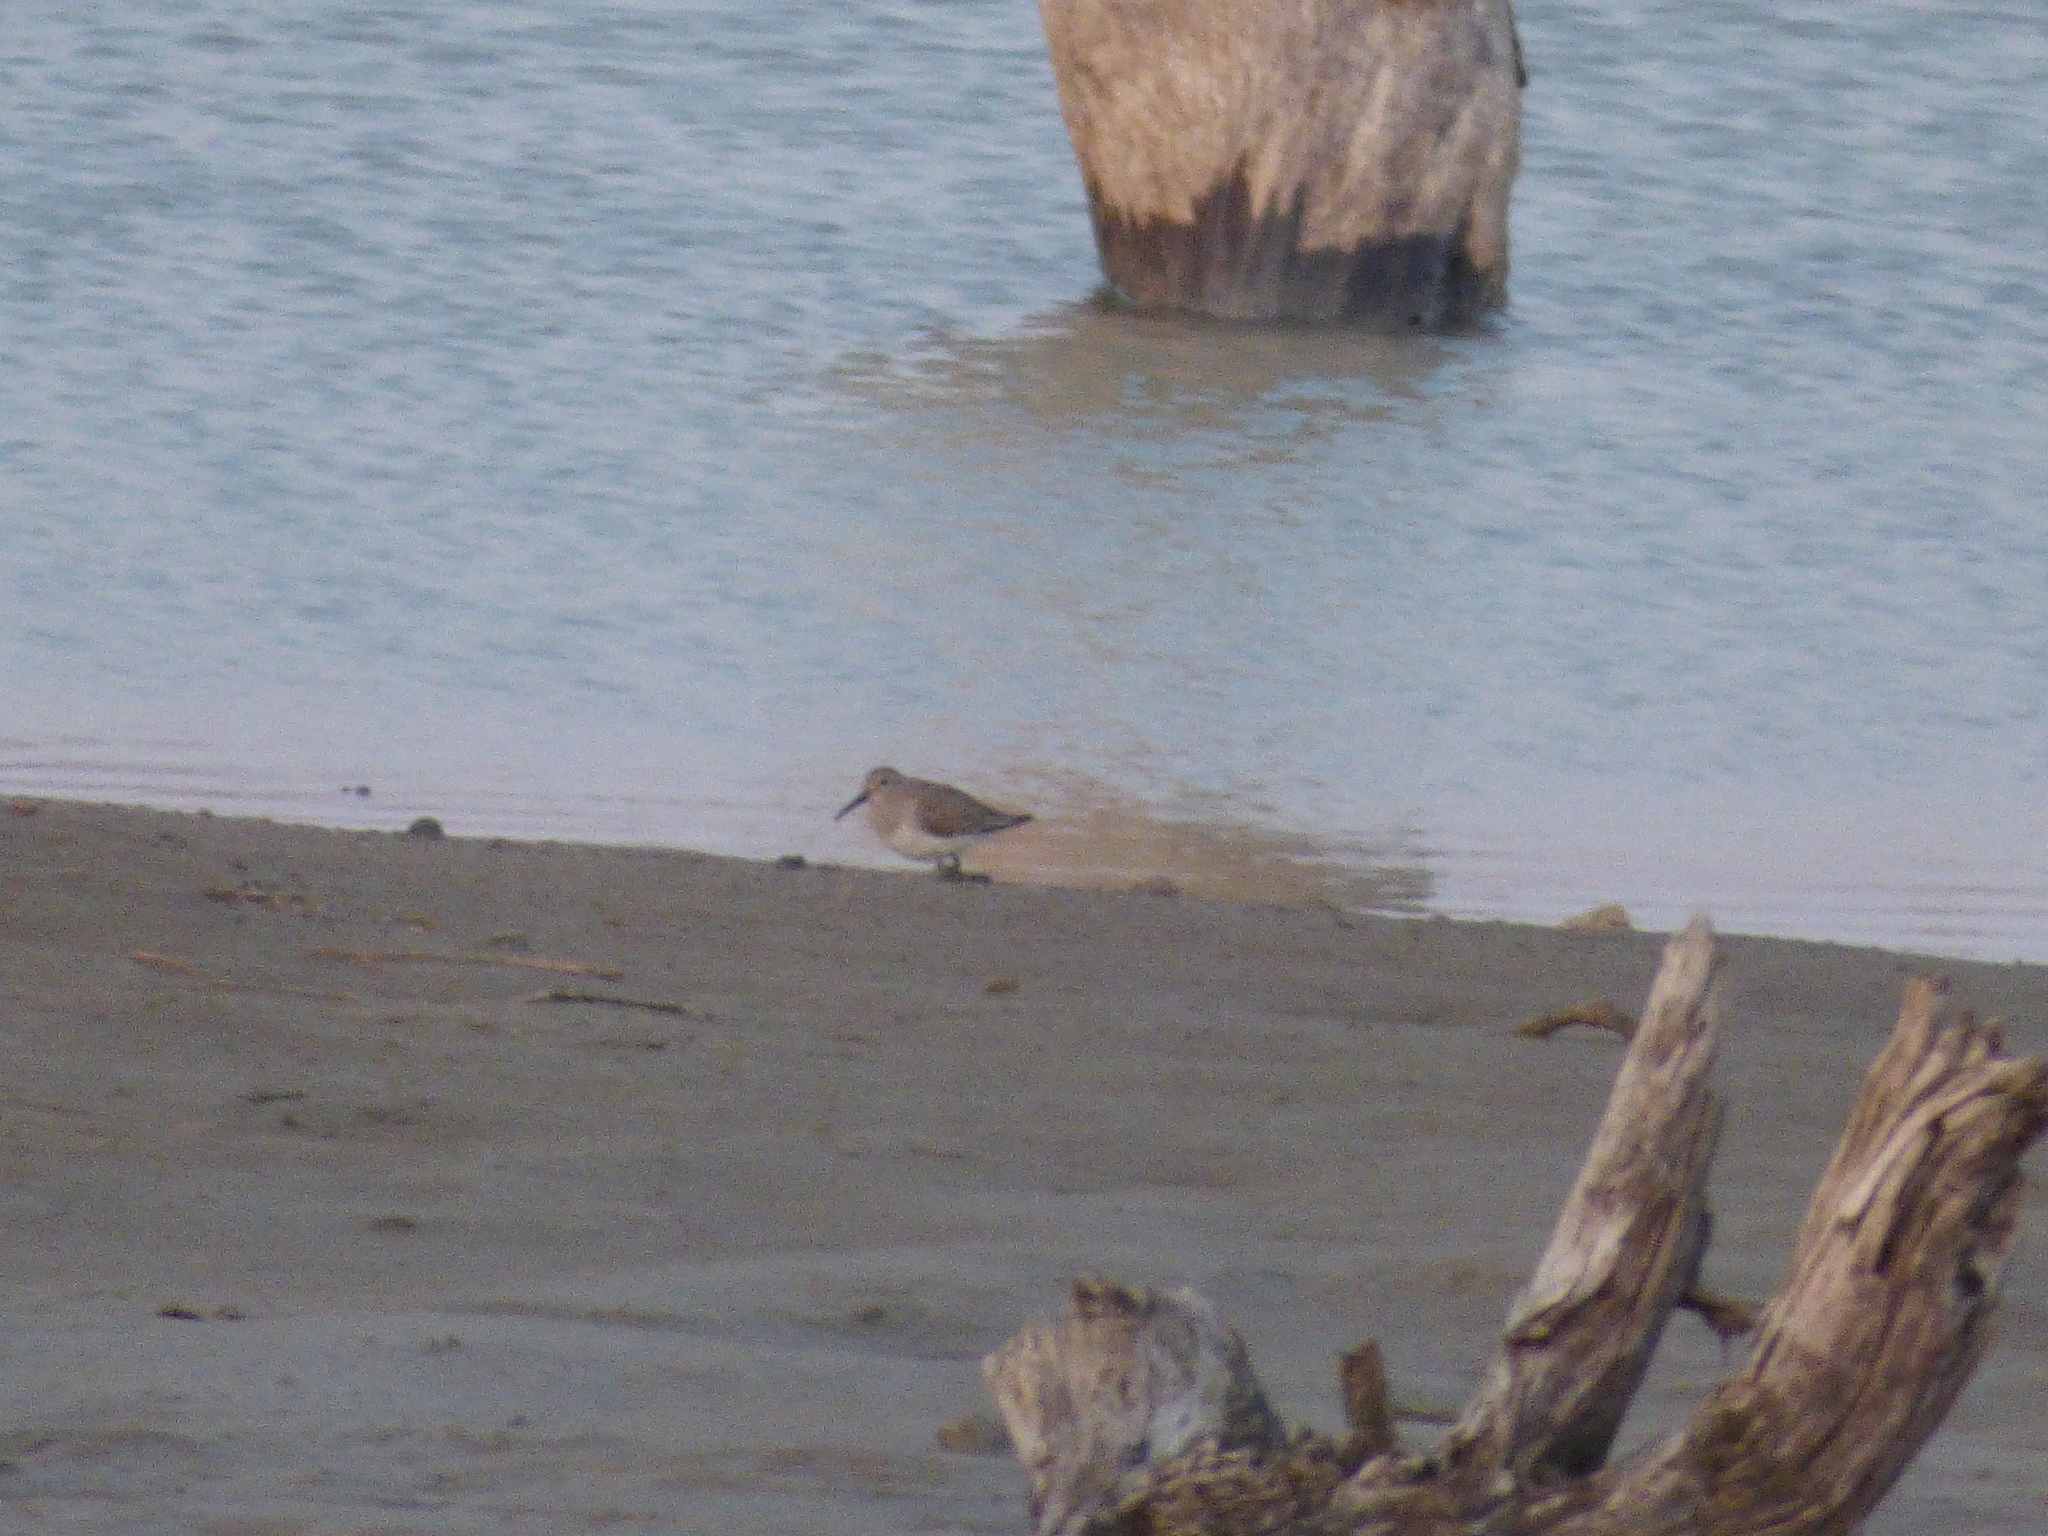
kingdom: Animalia
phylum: Chordata
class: Aves
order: Charadriiformes
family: Scolopacidae
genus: Calidris
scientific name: Calidris alpina
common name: Dunlin
